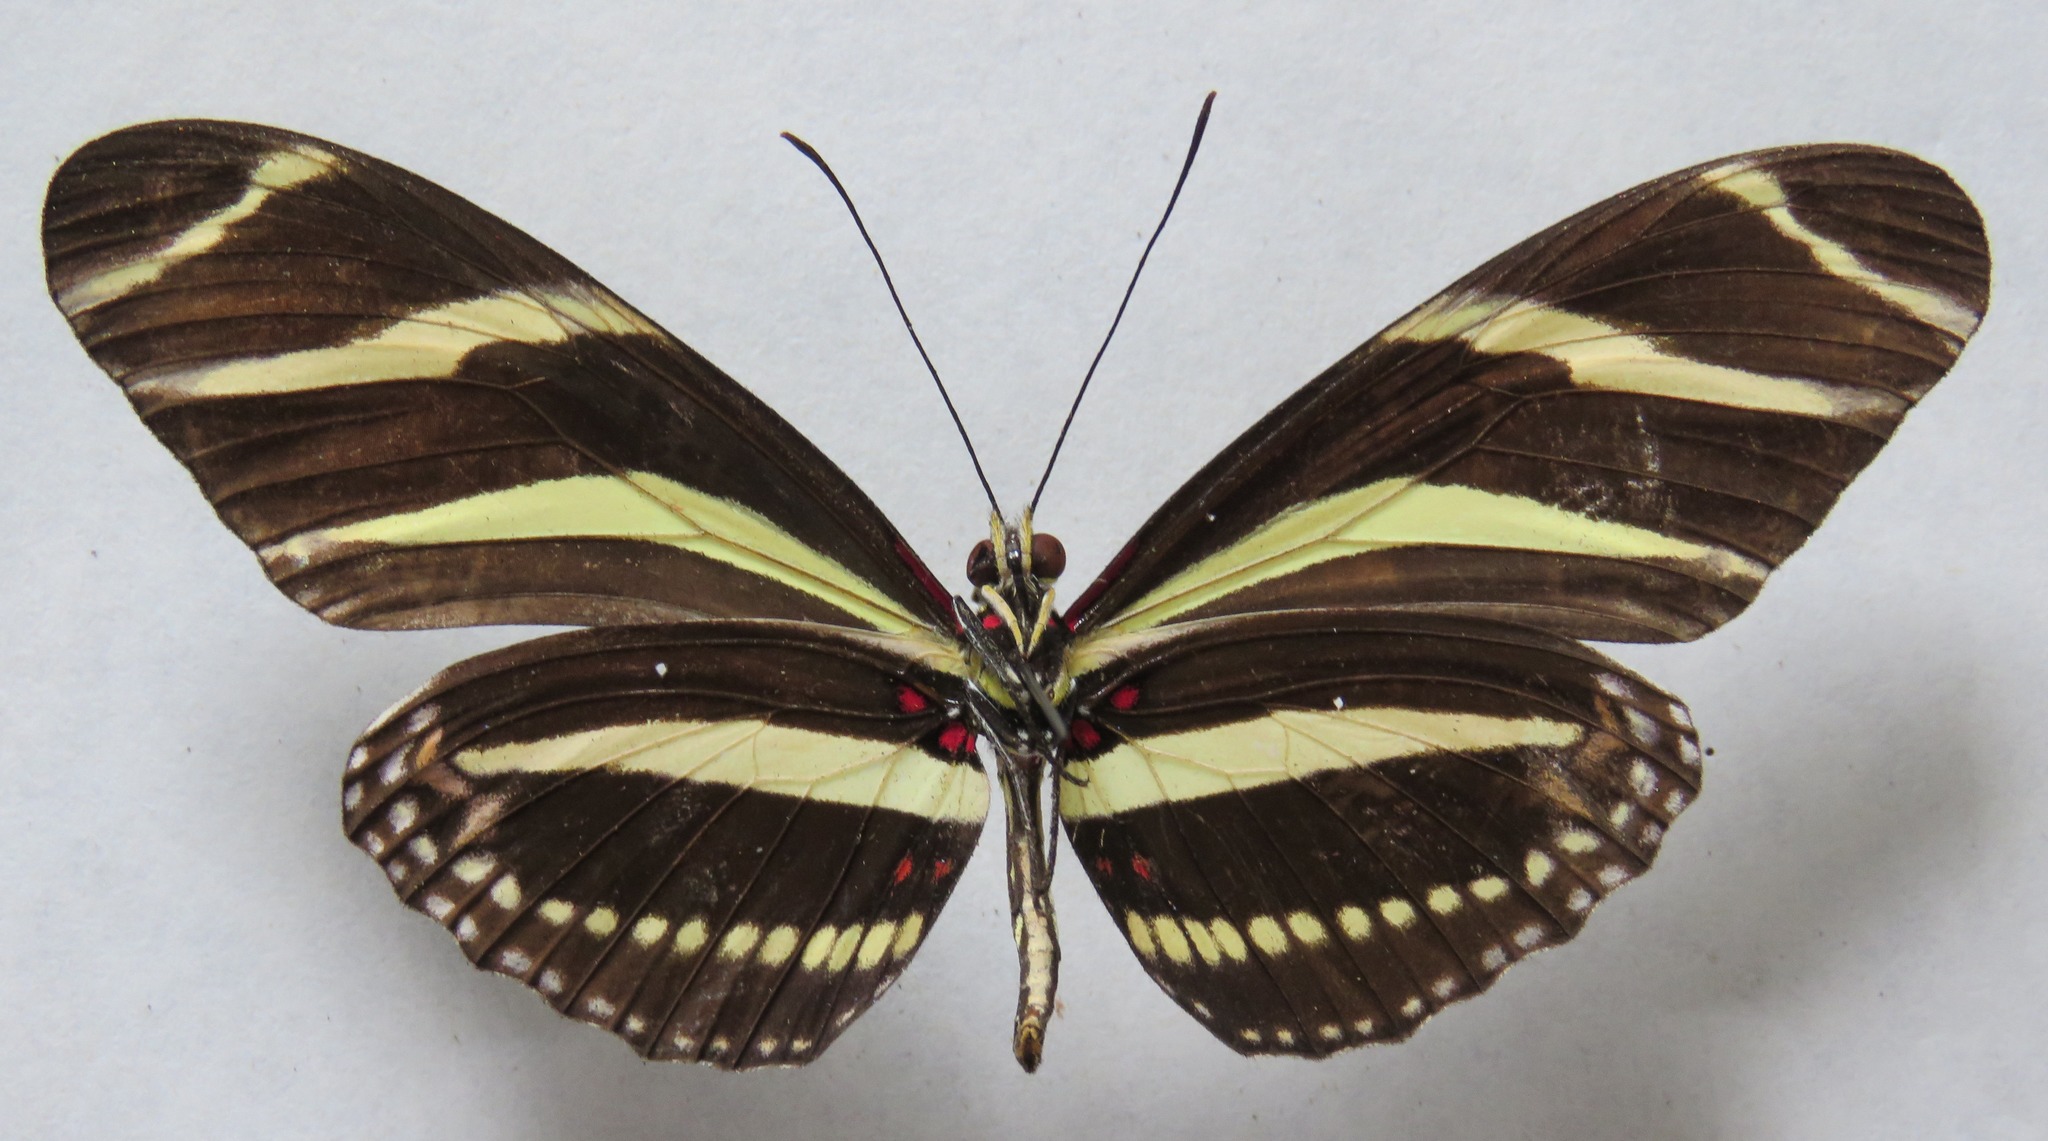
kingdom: Animalia
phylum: Arthropoda
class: Insecta
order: Lepidoptera
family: Nymphalidae
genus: Heliconius
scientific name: Heliconius charithonia
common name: Zebra long wing
